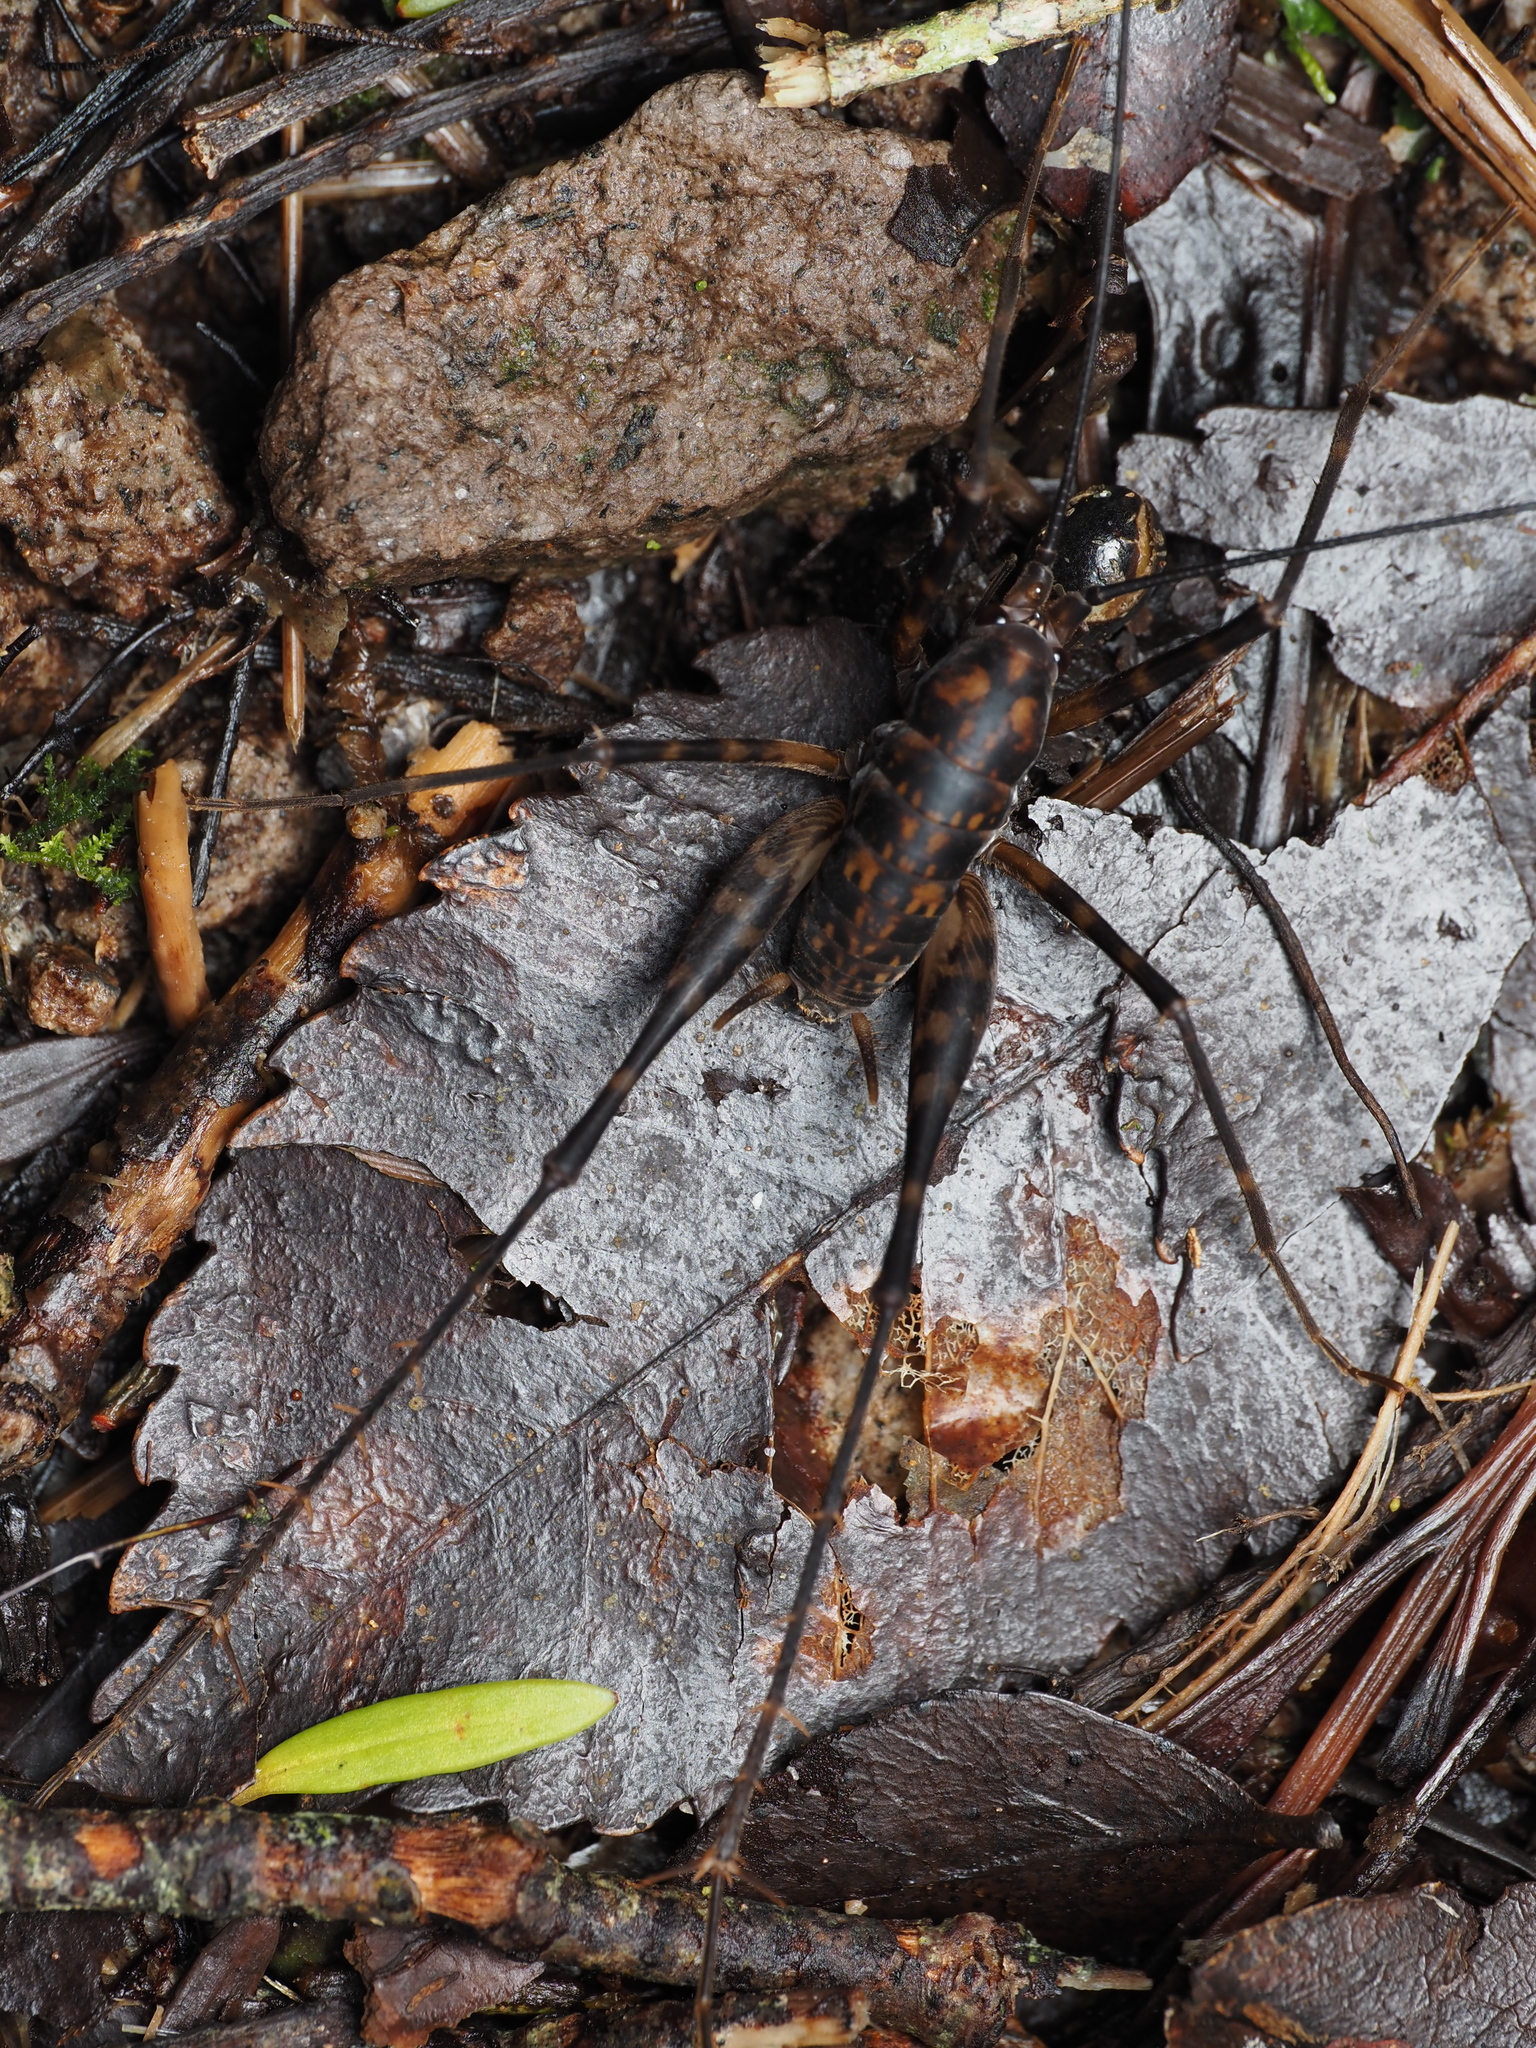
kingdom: Animalia
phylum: Arthropoda
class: Insecta
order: Orthoptera
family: Rhaphidophoridae
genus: Miotopus
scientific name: Miotopus richardsae
